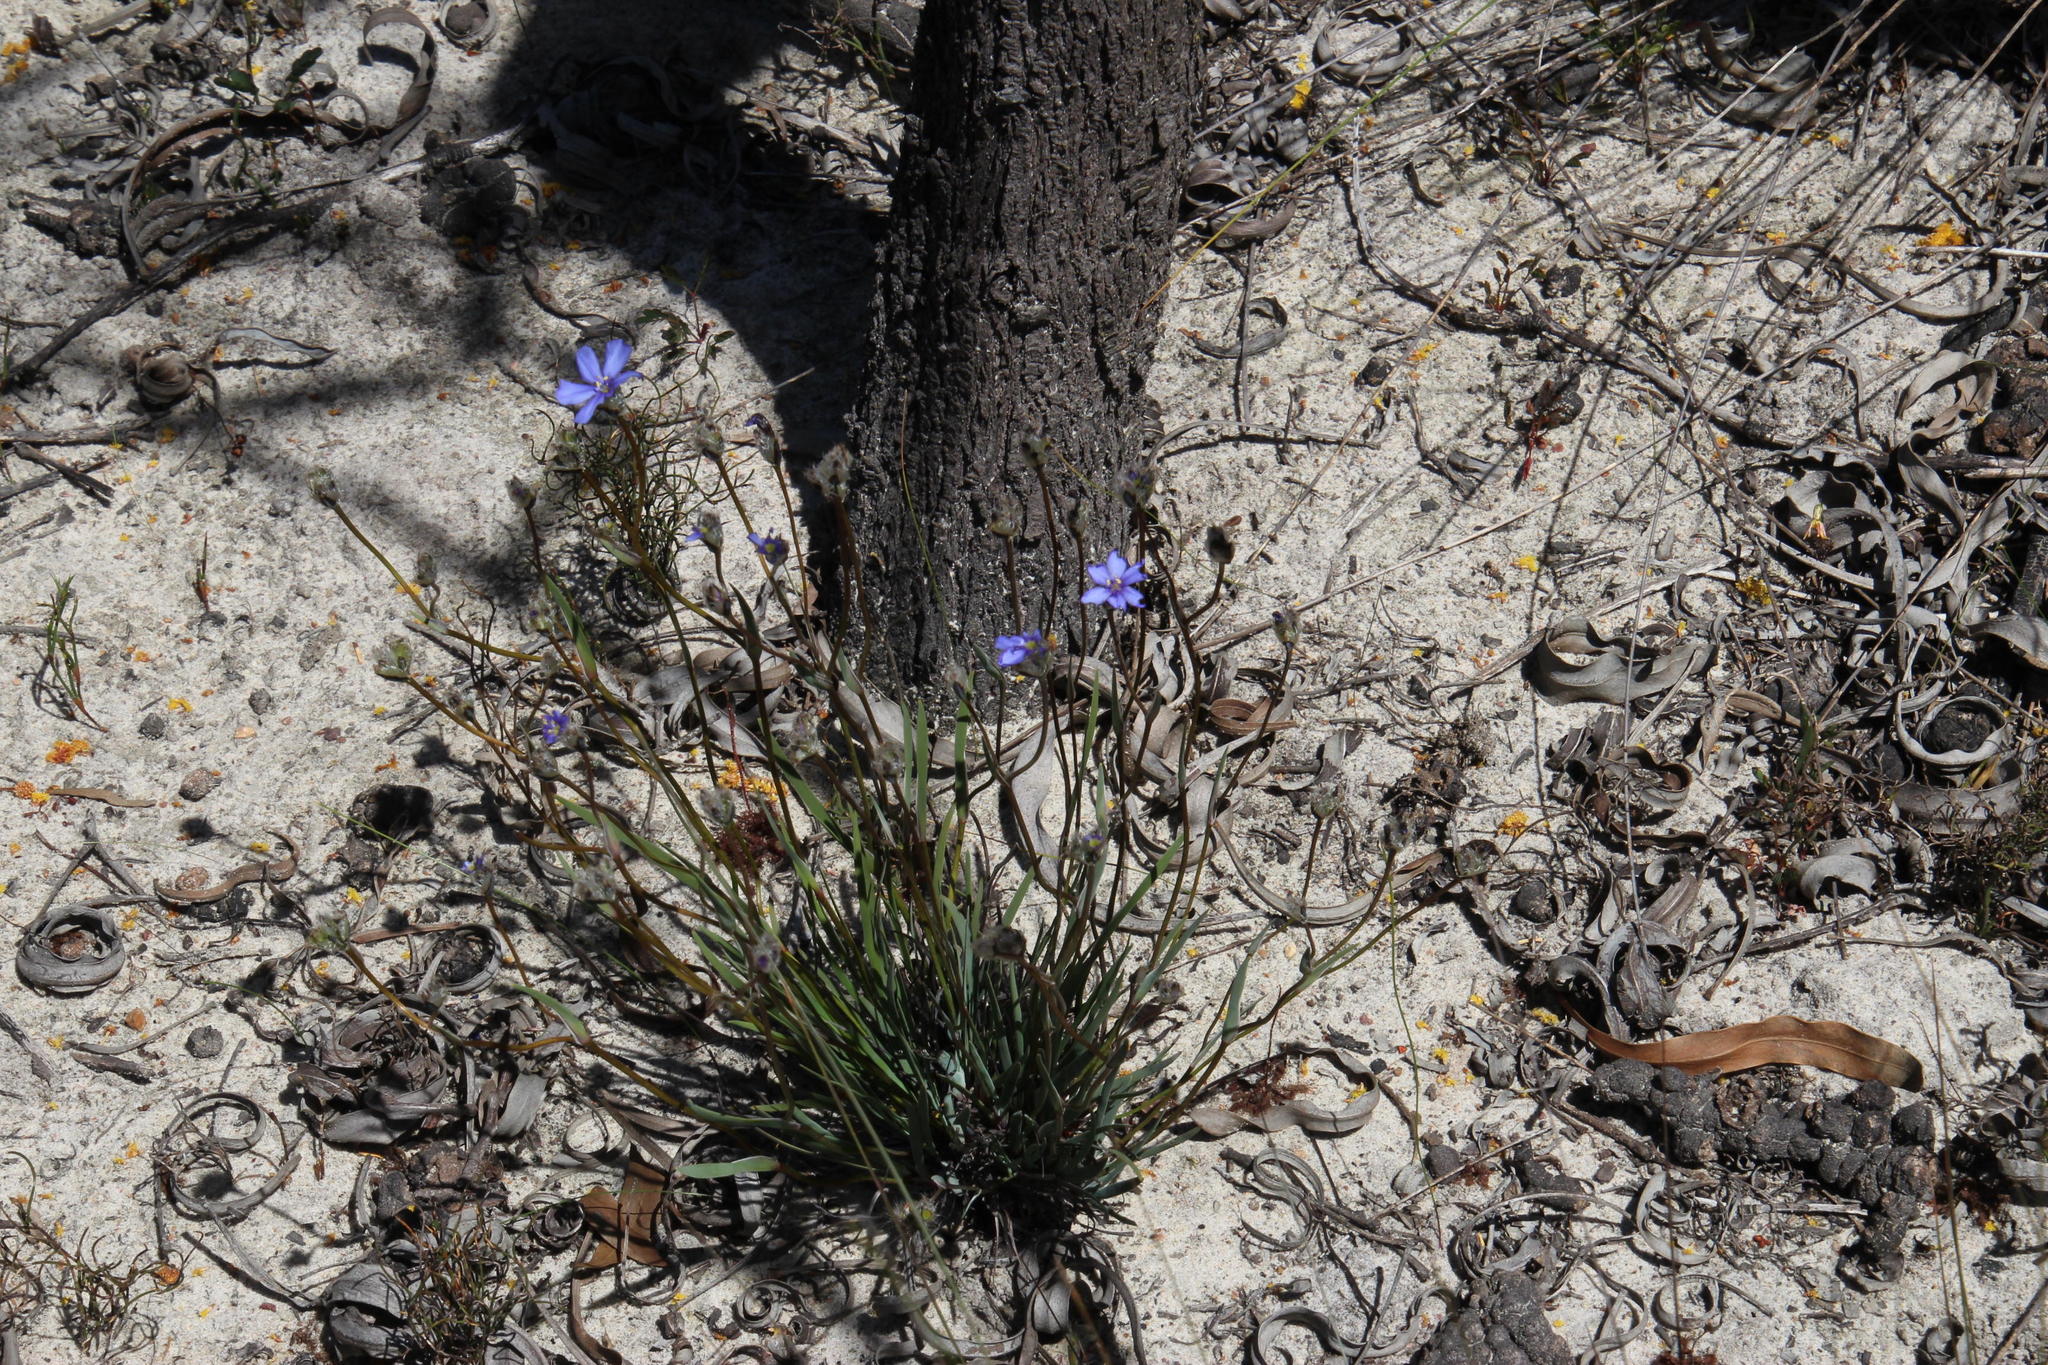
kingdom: Plantae
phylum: Tracheophyta
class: Liliopsida
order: Asparagales
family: Iridaceae
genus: Aristea
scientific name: Aristea africana
